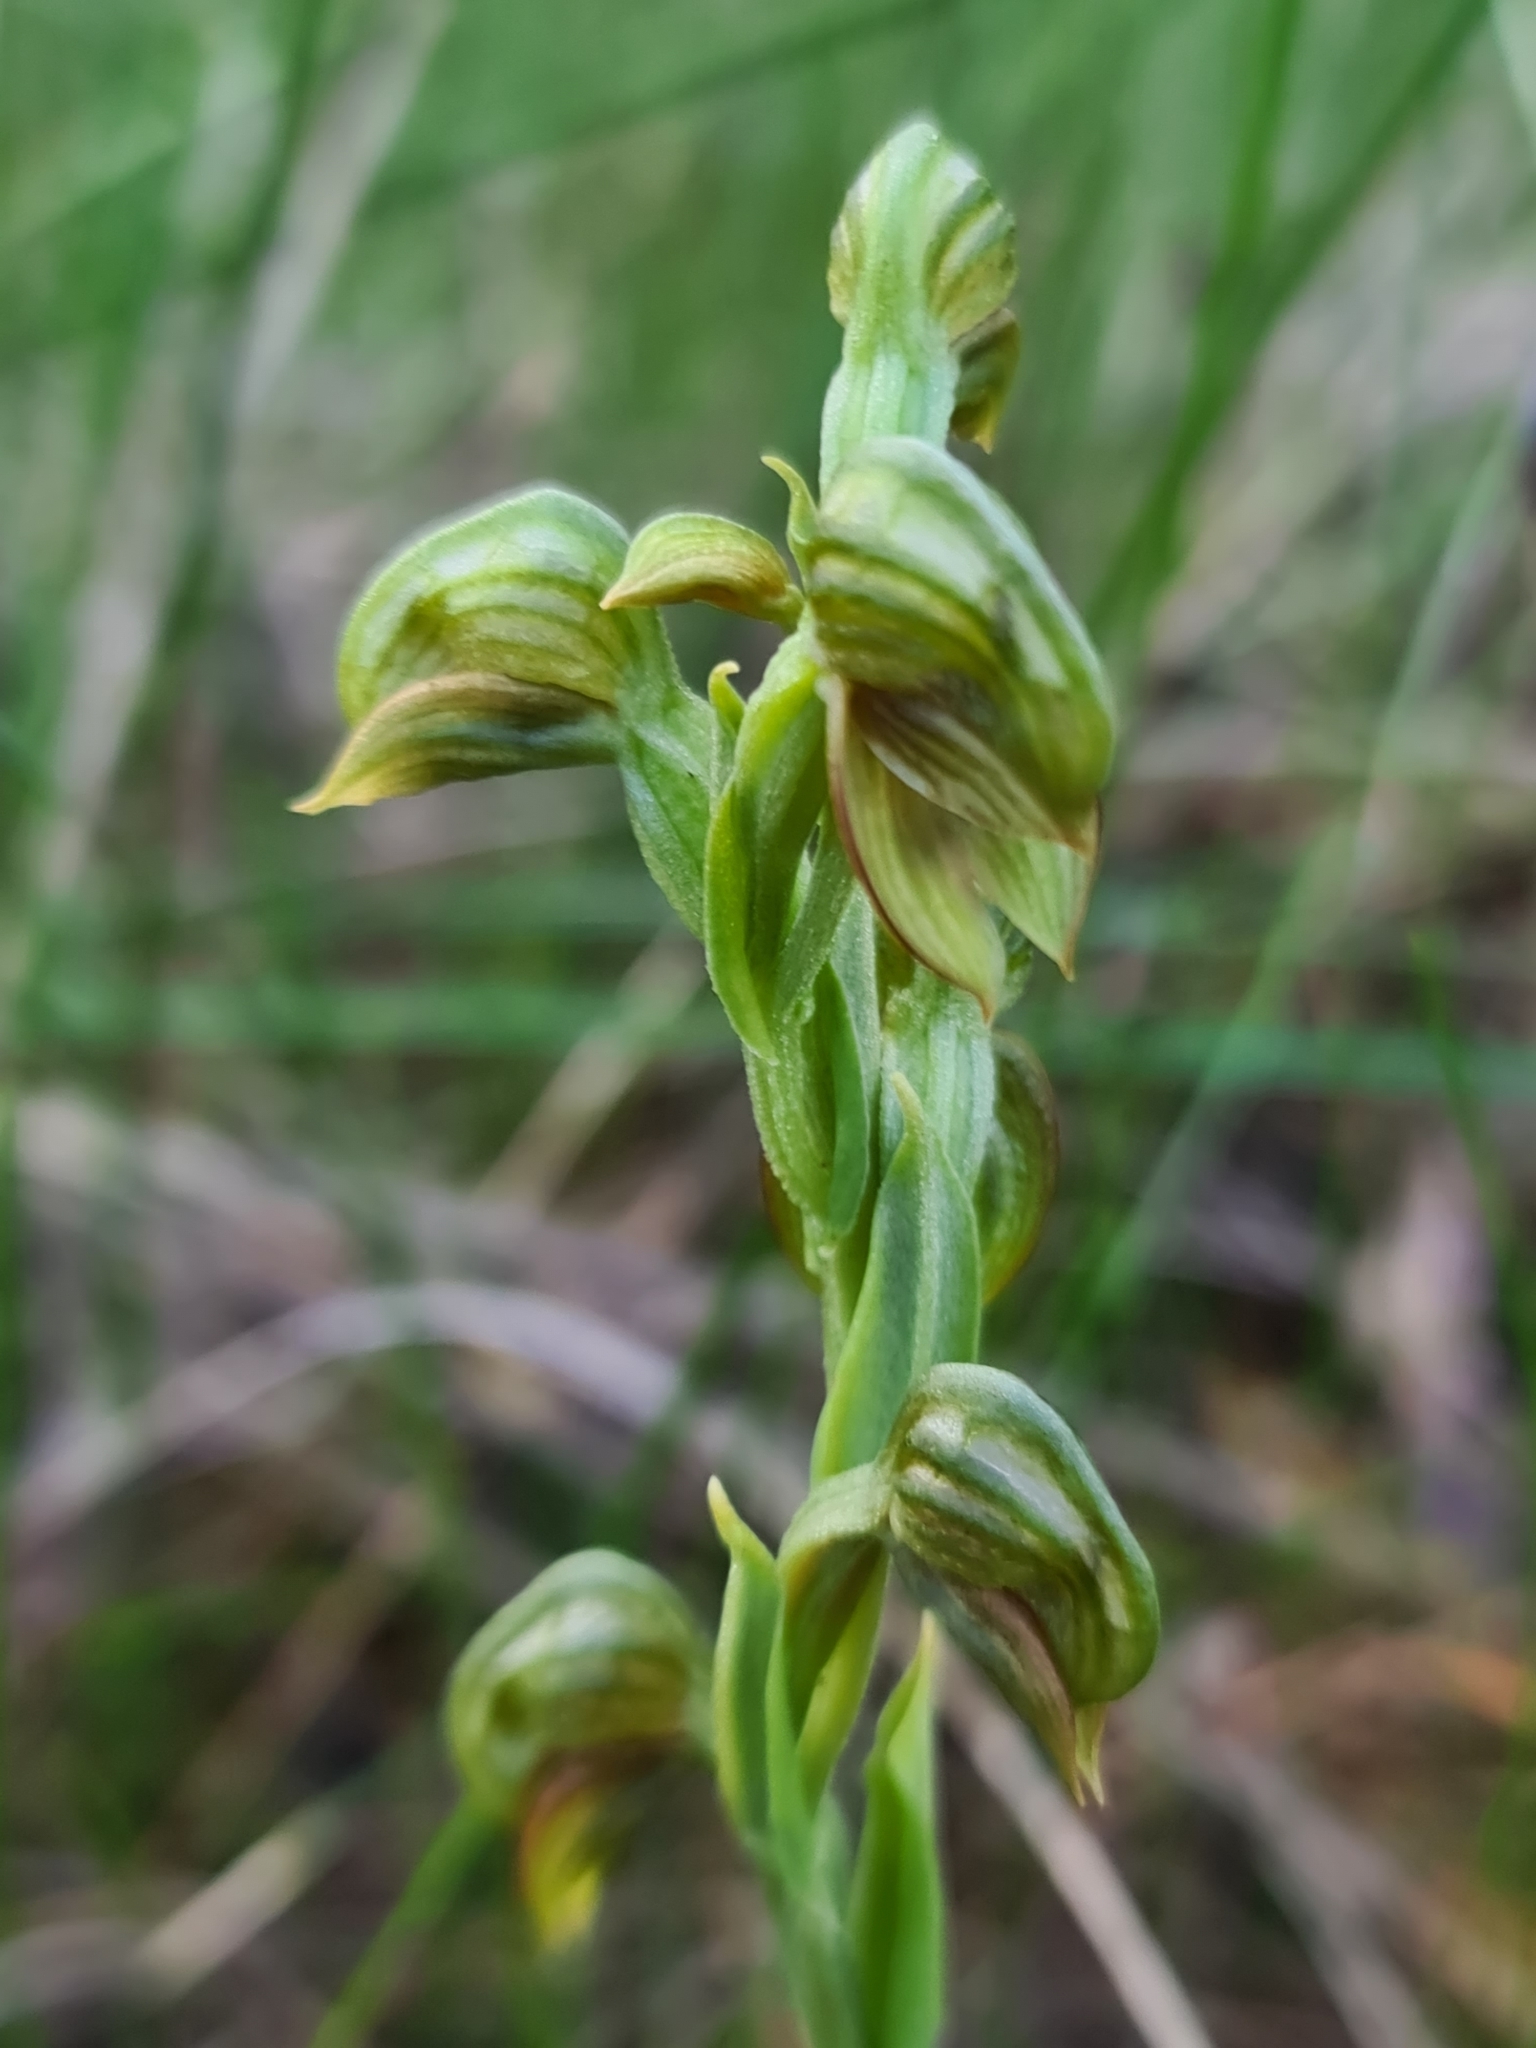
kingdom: Plantae
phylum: Tracheophyta
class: Liliopsida
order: Asparagales
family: Orchidaceae
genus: Pterostylis
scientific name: Pterostylis vittata
